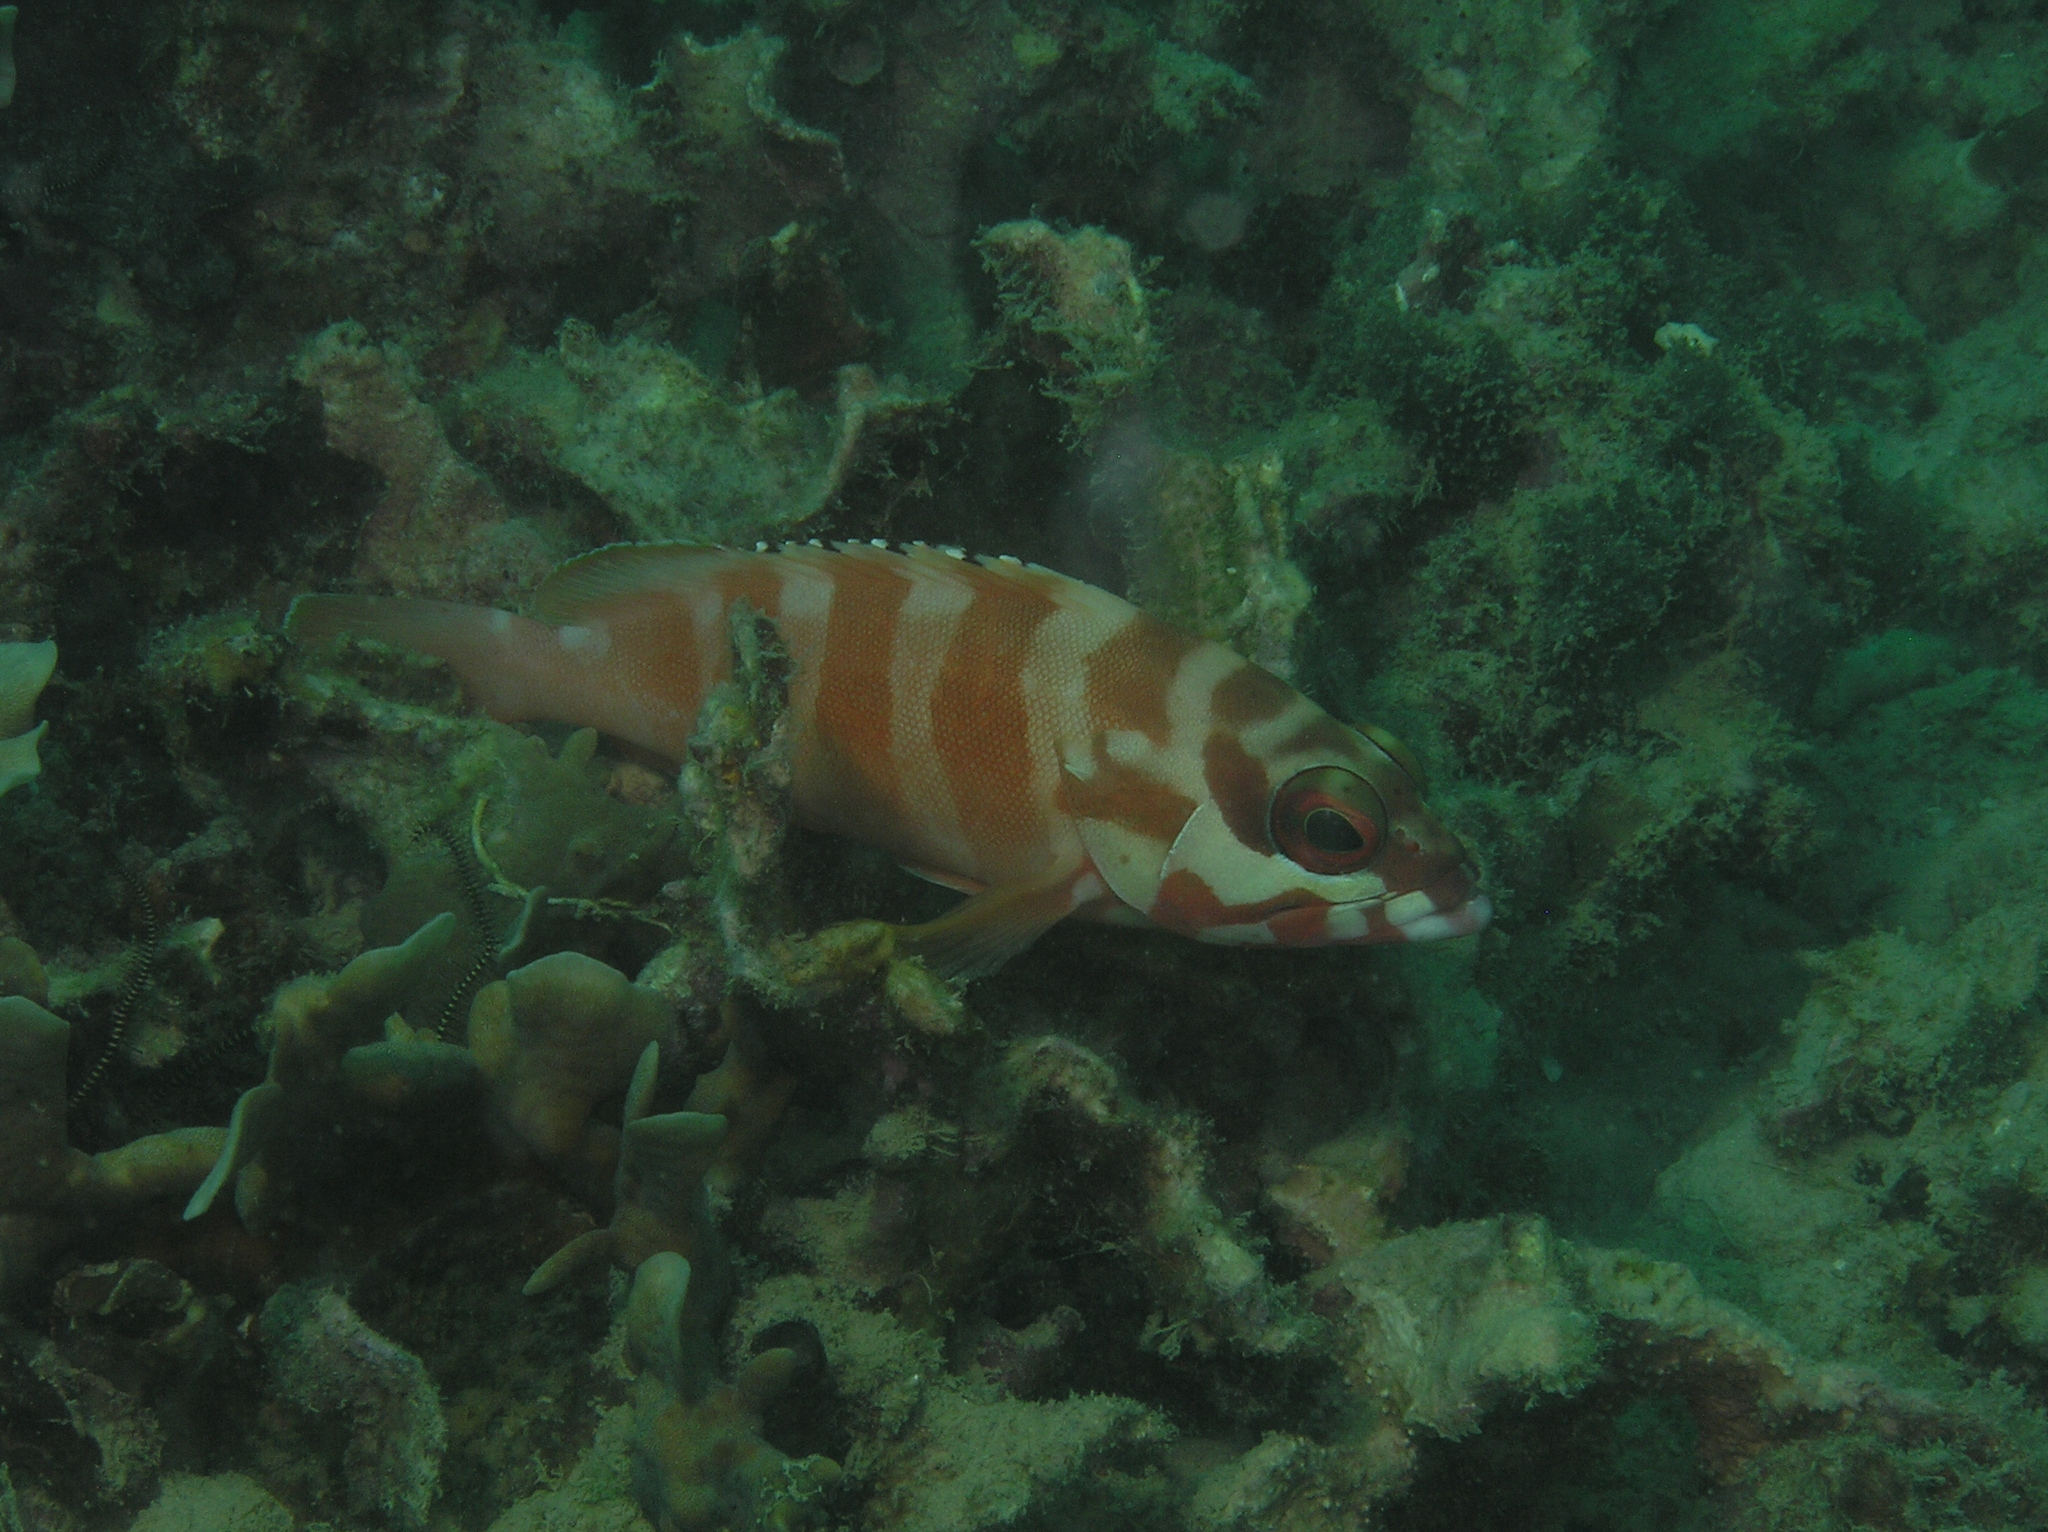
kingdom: Animalia
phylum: Chordata
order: Perciformes
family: Serranidae
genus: Epinephelus
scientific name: Epinephelus fasciatus
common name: Blacktip grouper
